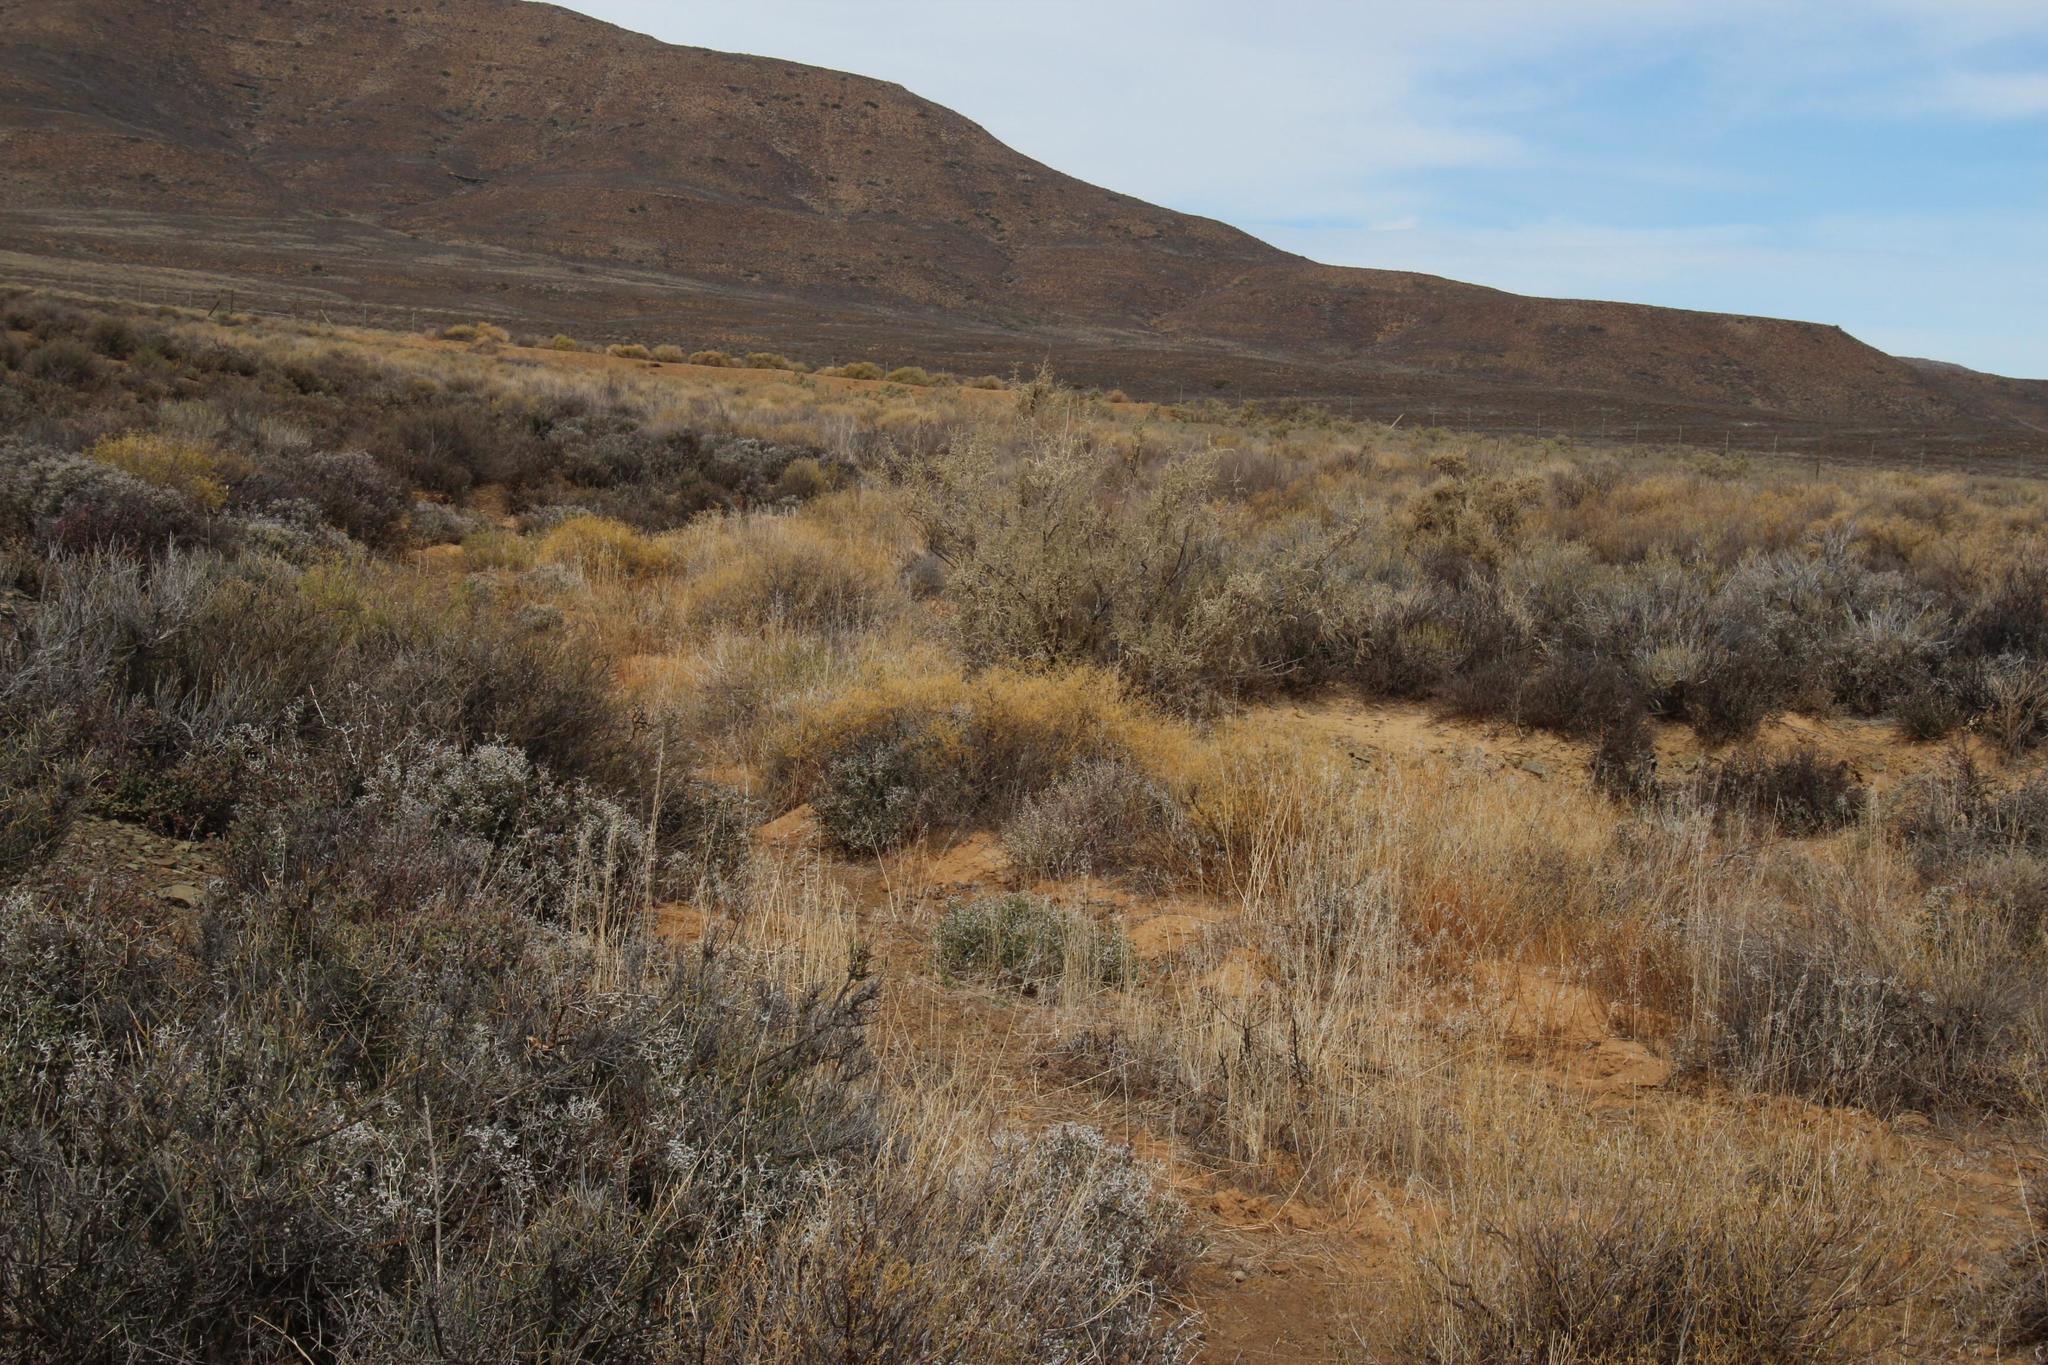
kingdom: Plantae
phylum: Tracheophyta
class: Magnoliopsida
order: Caryophyllales
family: Aizoaceae
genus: Aizoon
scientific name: Aizoon africanum
